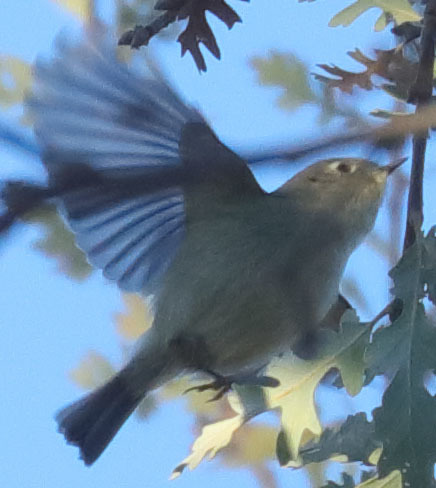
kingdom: Animalia
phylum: Chordata
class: Aves
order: Passeriformes
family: Regulidae
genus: Regulus
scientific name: Regulus calendula
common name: Ruby-crowned kinglet
